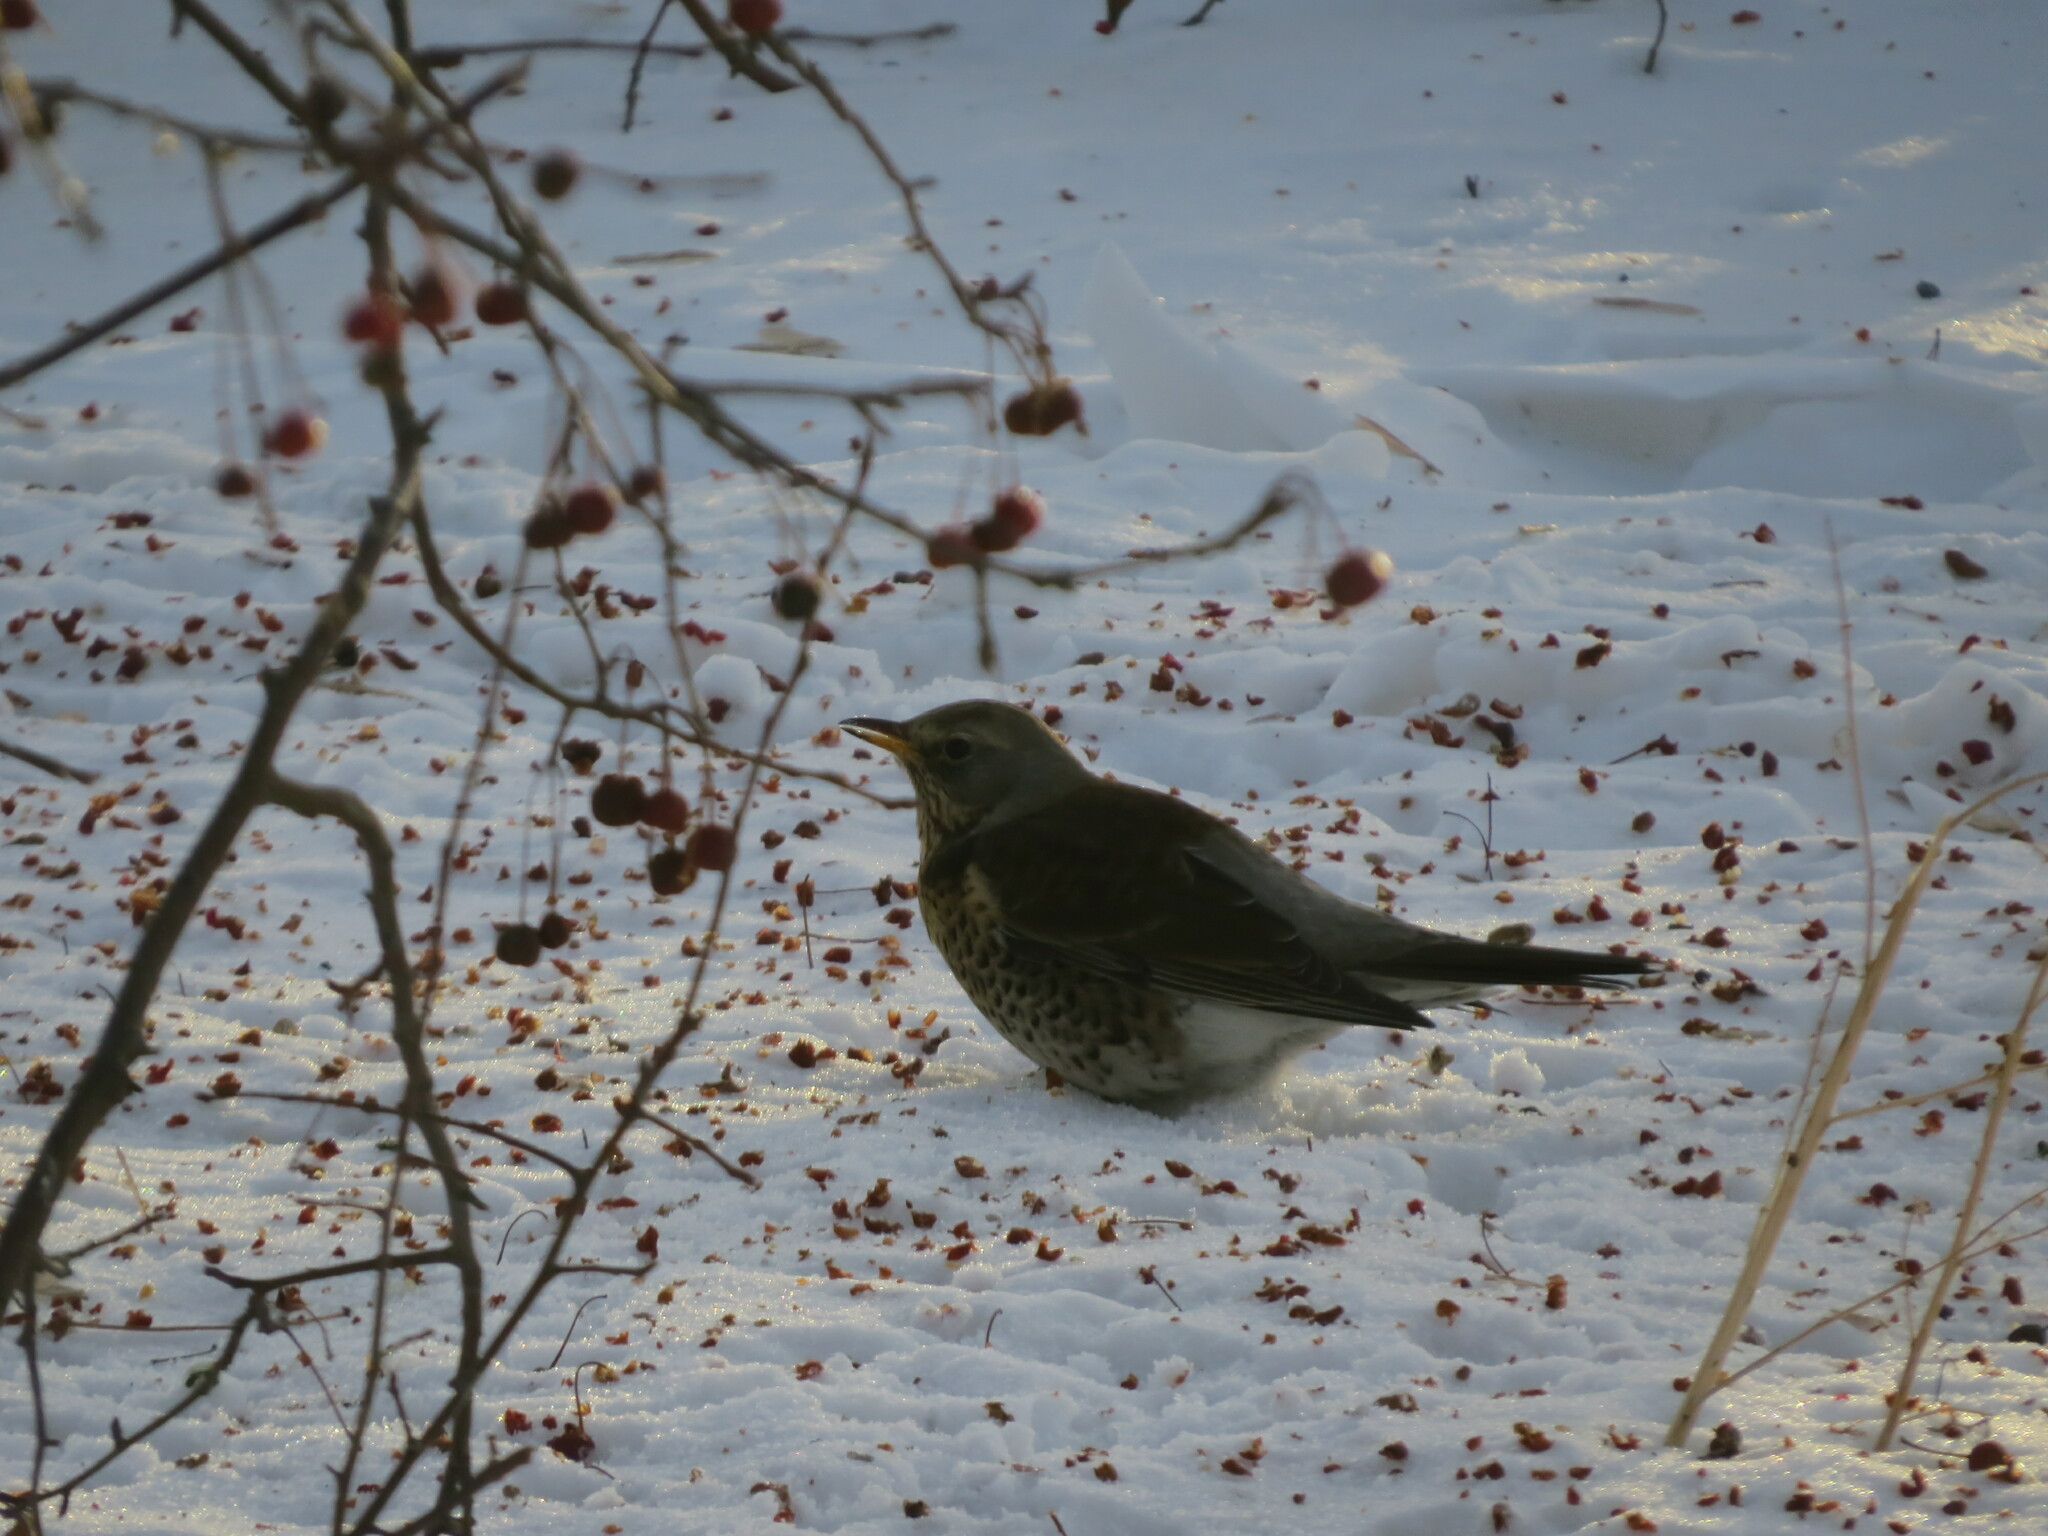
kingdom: Animalia
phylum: Chordata
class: Aves
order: Passeriformes
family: Turdidae
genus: Turdus
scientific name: Turdus pilaris
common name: Fieldfare
